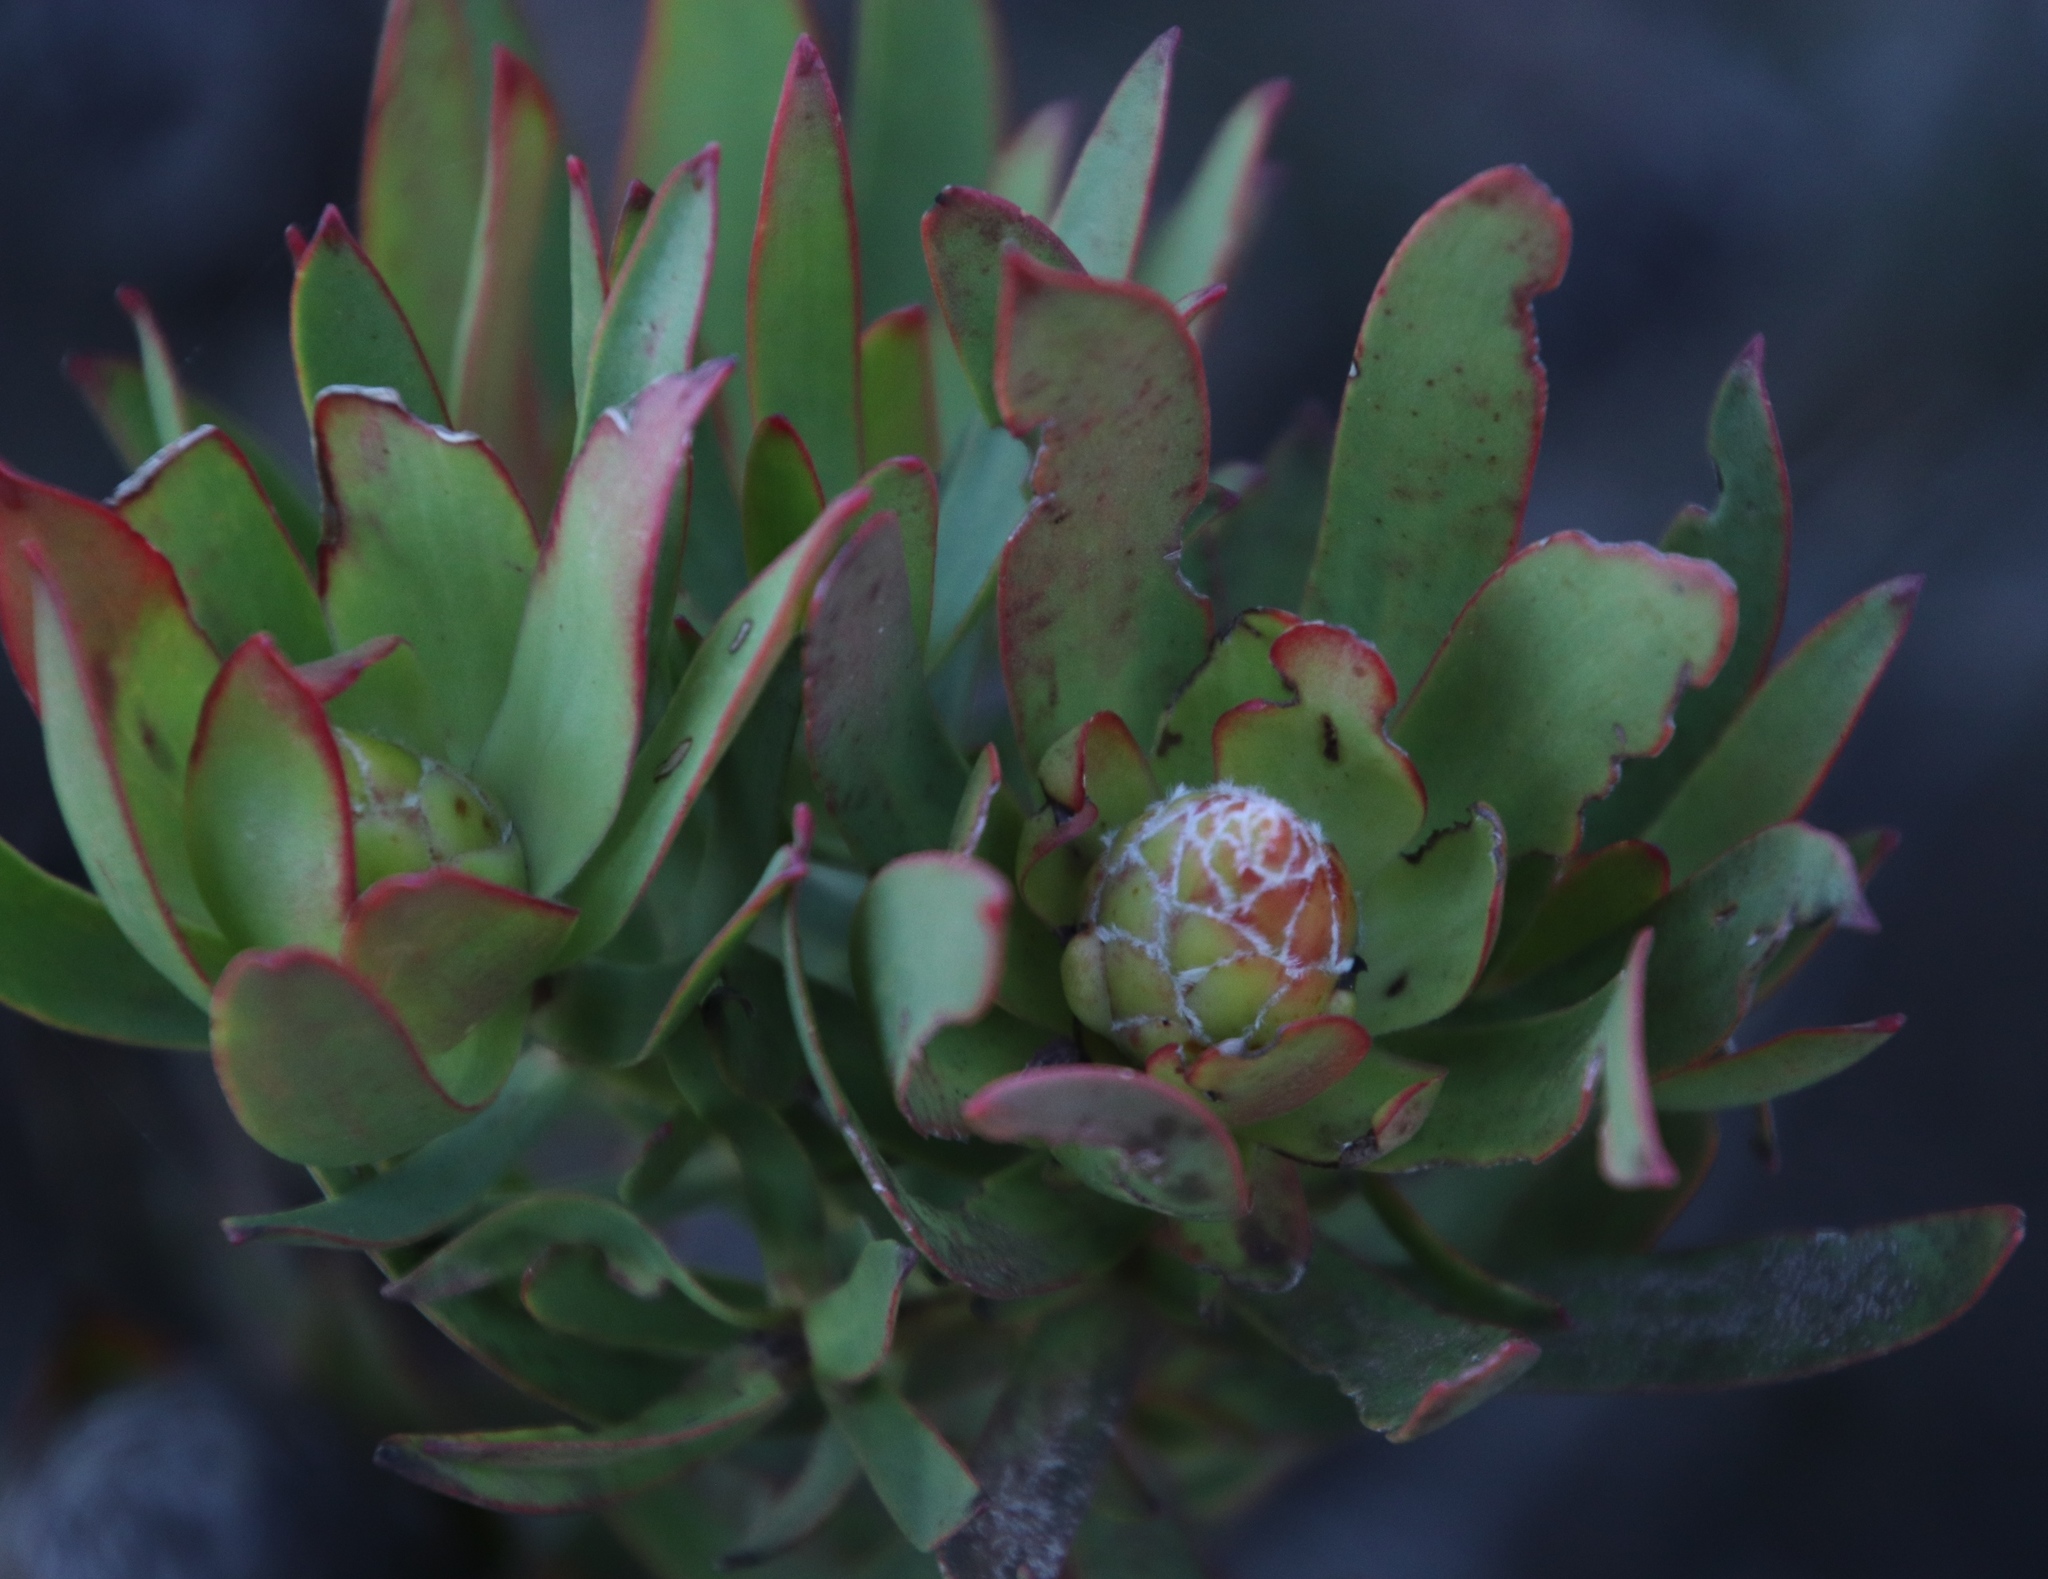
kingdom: Plantae
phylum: Tracheophyta
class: Magnoliopsida
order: Proteales
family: Proteaceae
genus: Leucadendron
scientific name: Leucadendron spissifolium
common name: Spear-leaf conebush
